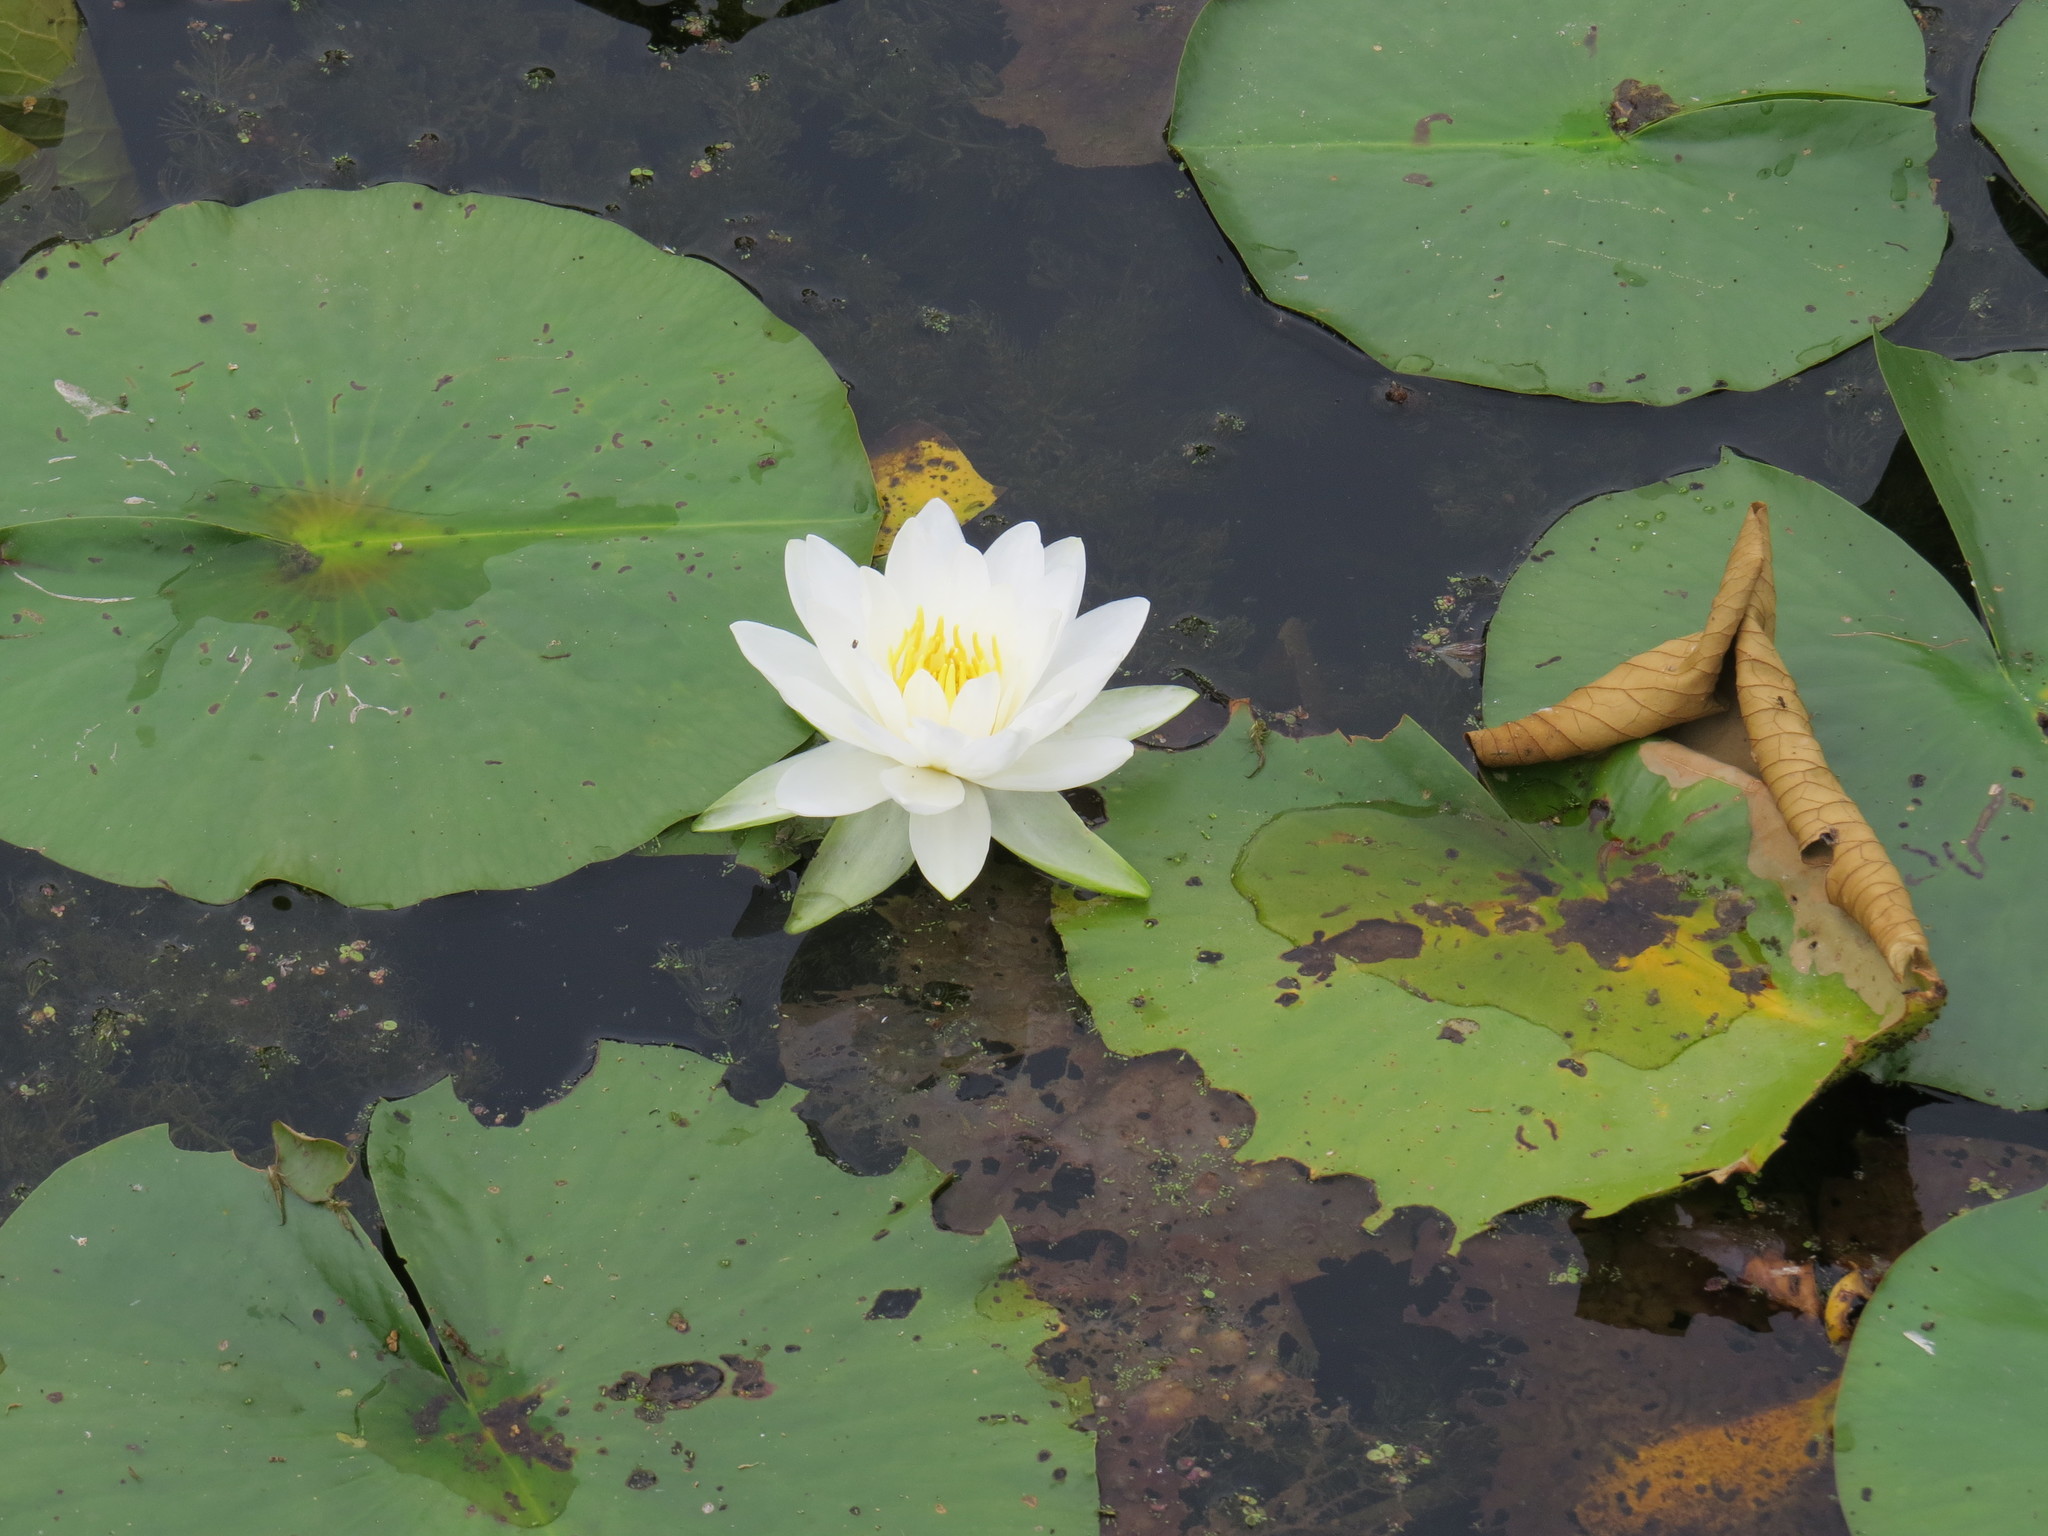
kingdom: Plantae
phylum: Tracheophyta
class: Magnoliopsida
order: Nymphaeales
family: Nymphaeaceae
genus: Nymphaea
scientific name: Nymphaea odorata
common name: Fragrant water-lily
